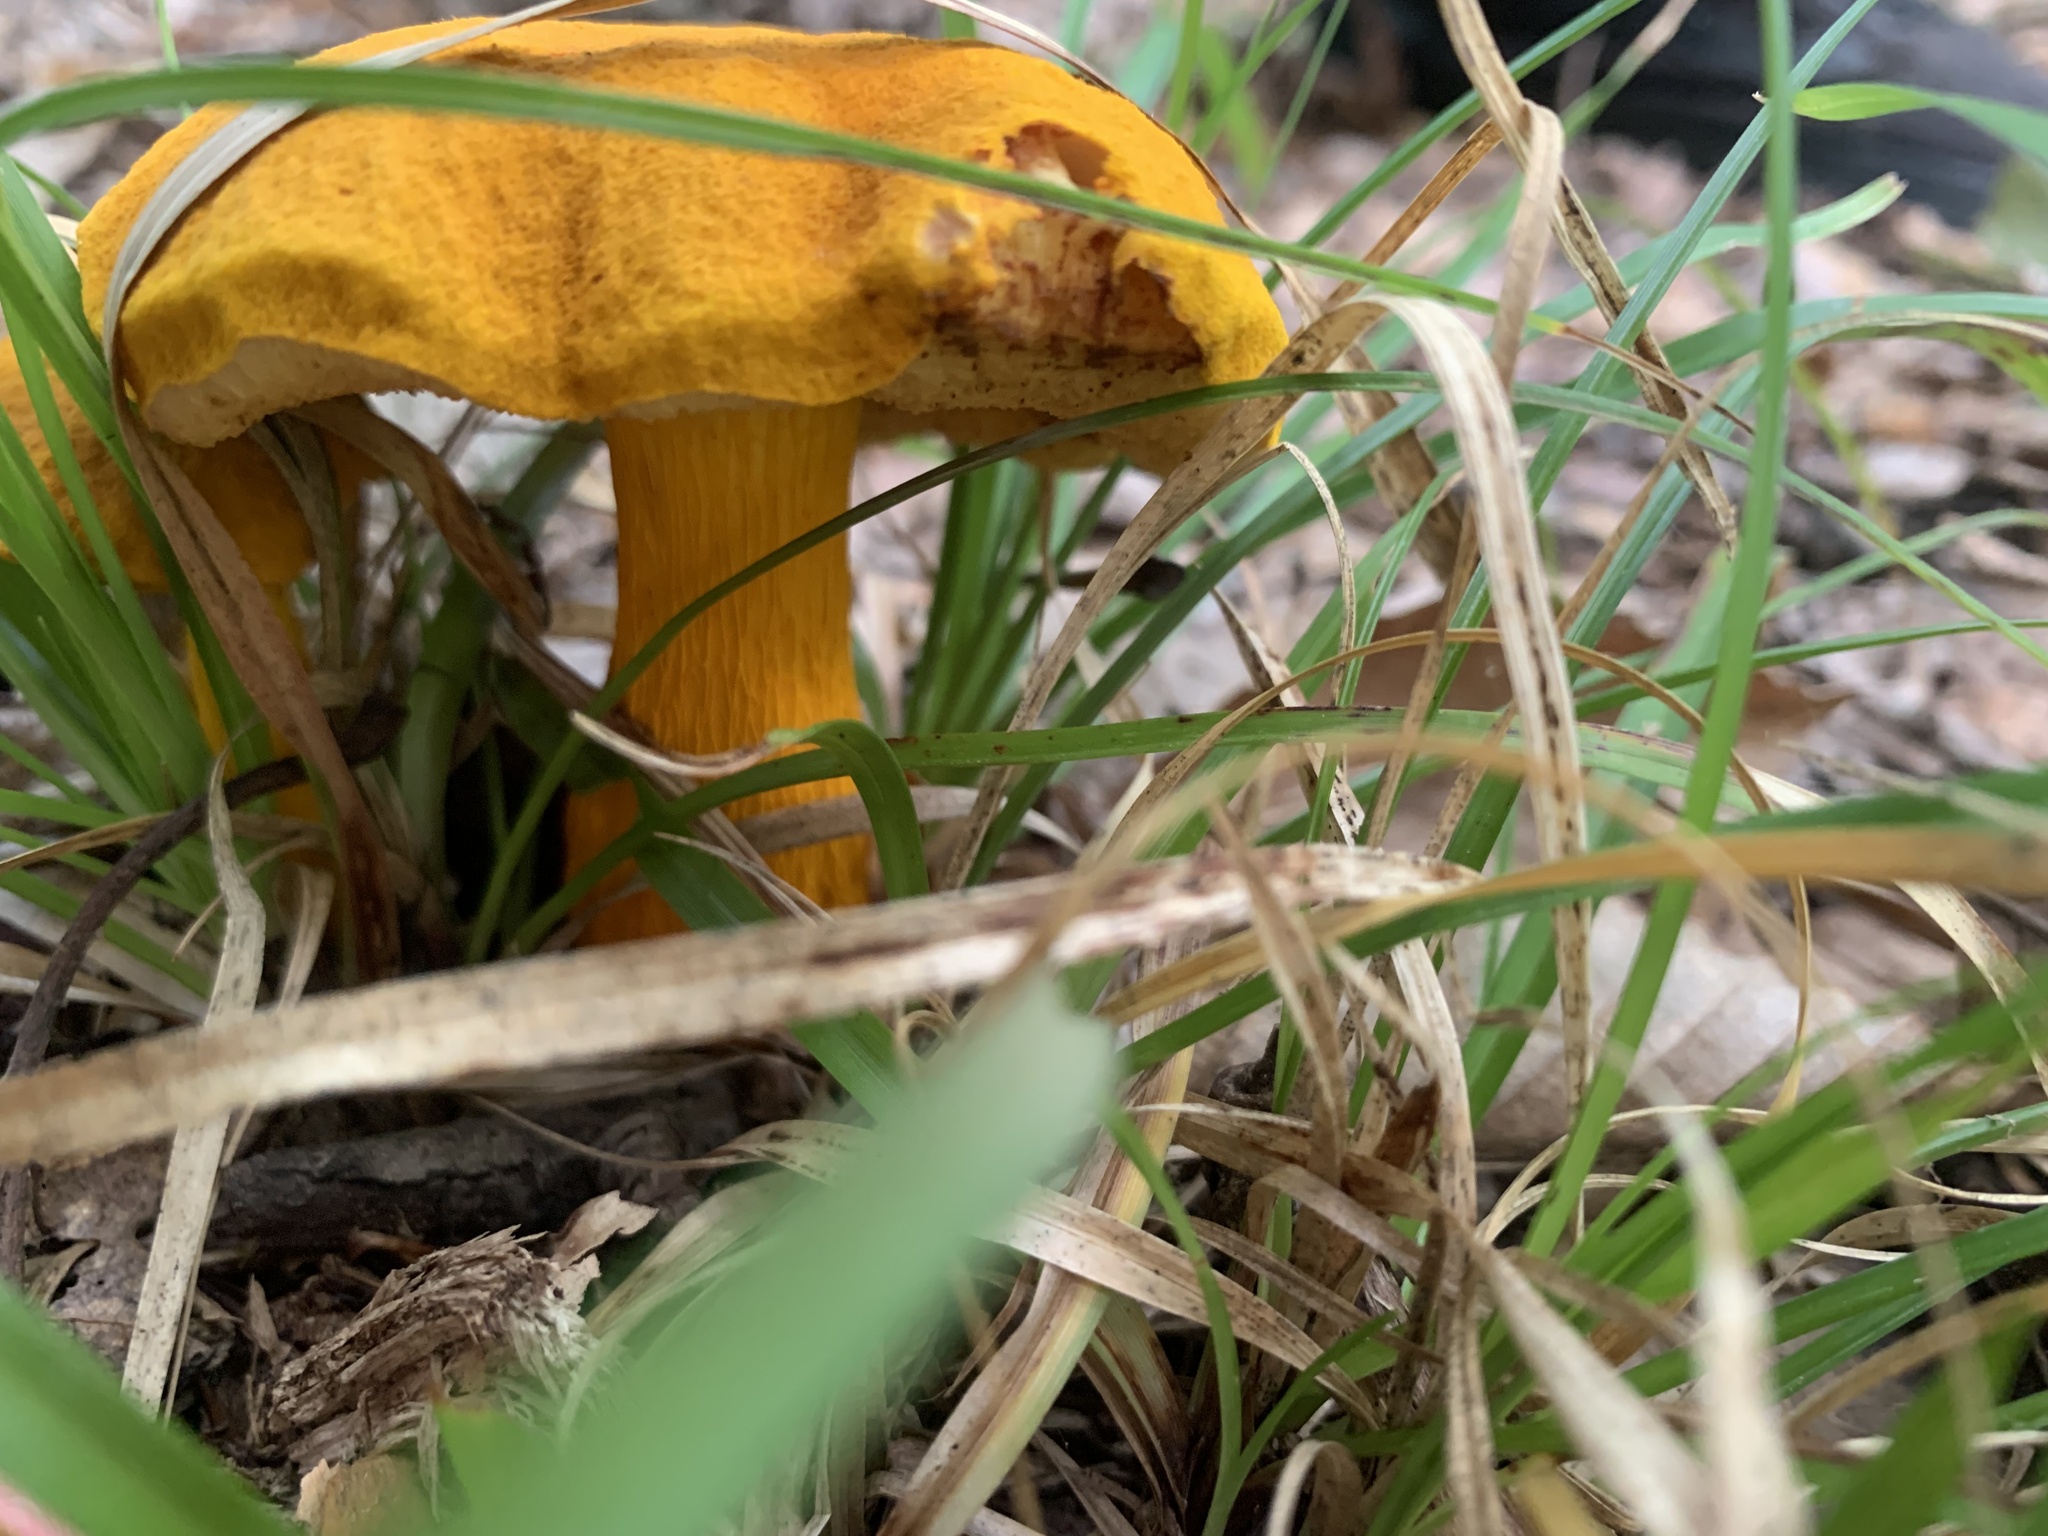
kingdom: Fungi
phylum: Basidiomycota
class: Agaricomycetes
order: Boletales
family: Boletaceae
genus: Aureoboletus
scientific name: Aureoboletus auriflammeus
